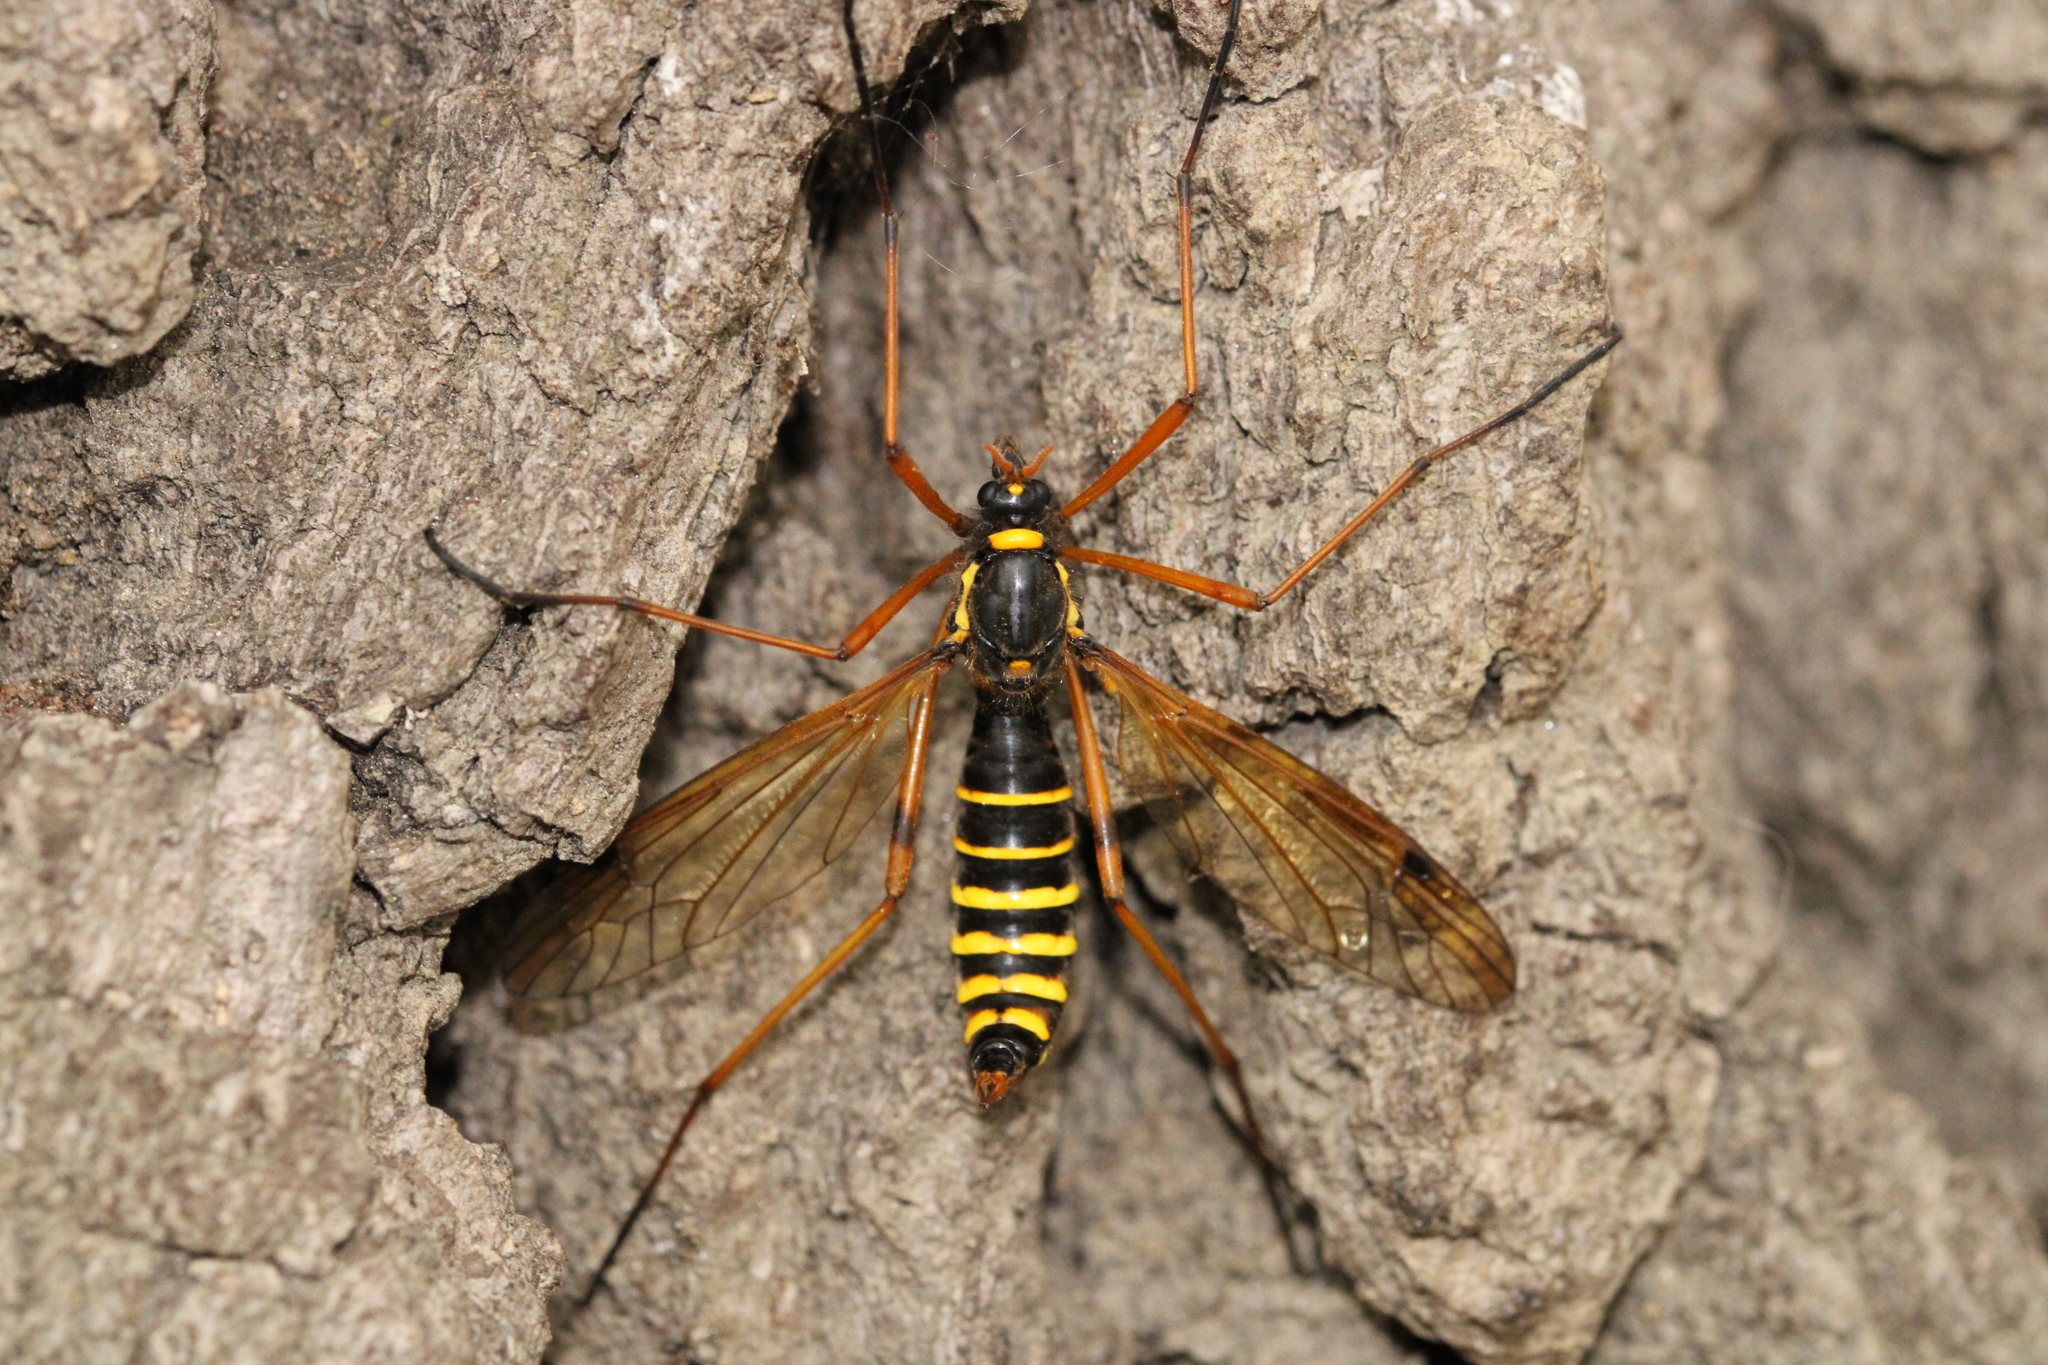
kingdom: Animalia
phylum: Arthropoda
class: Insecta
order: Diptera
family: Tipulidae
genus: Ctenophora
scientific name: Ctenophora flaveolata
